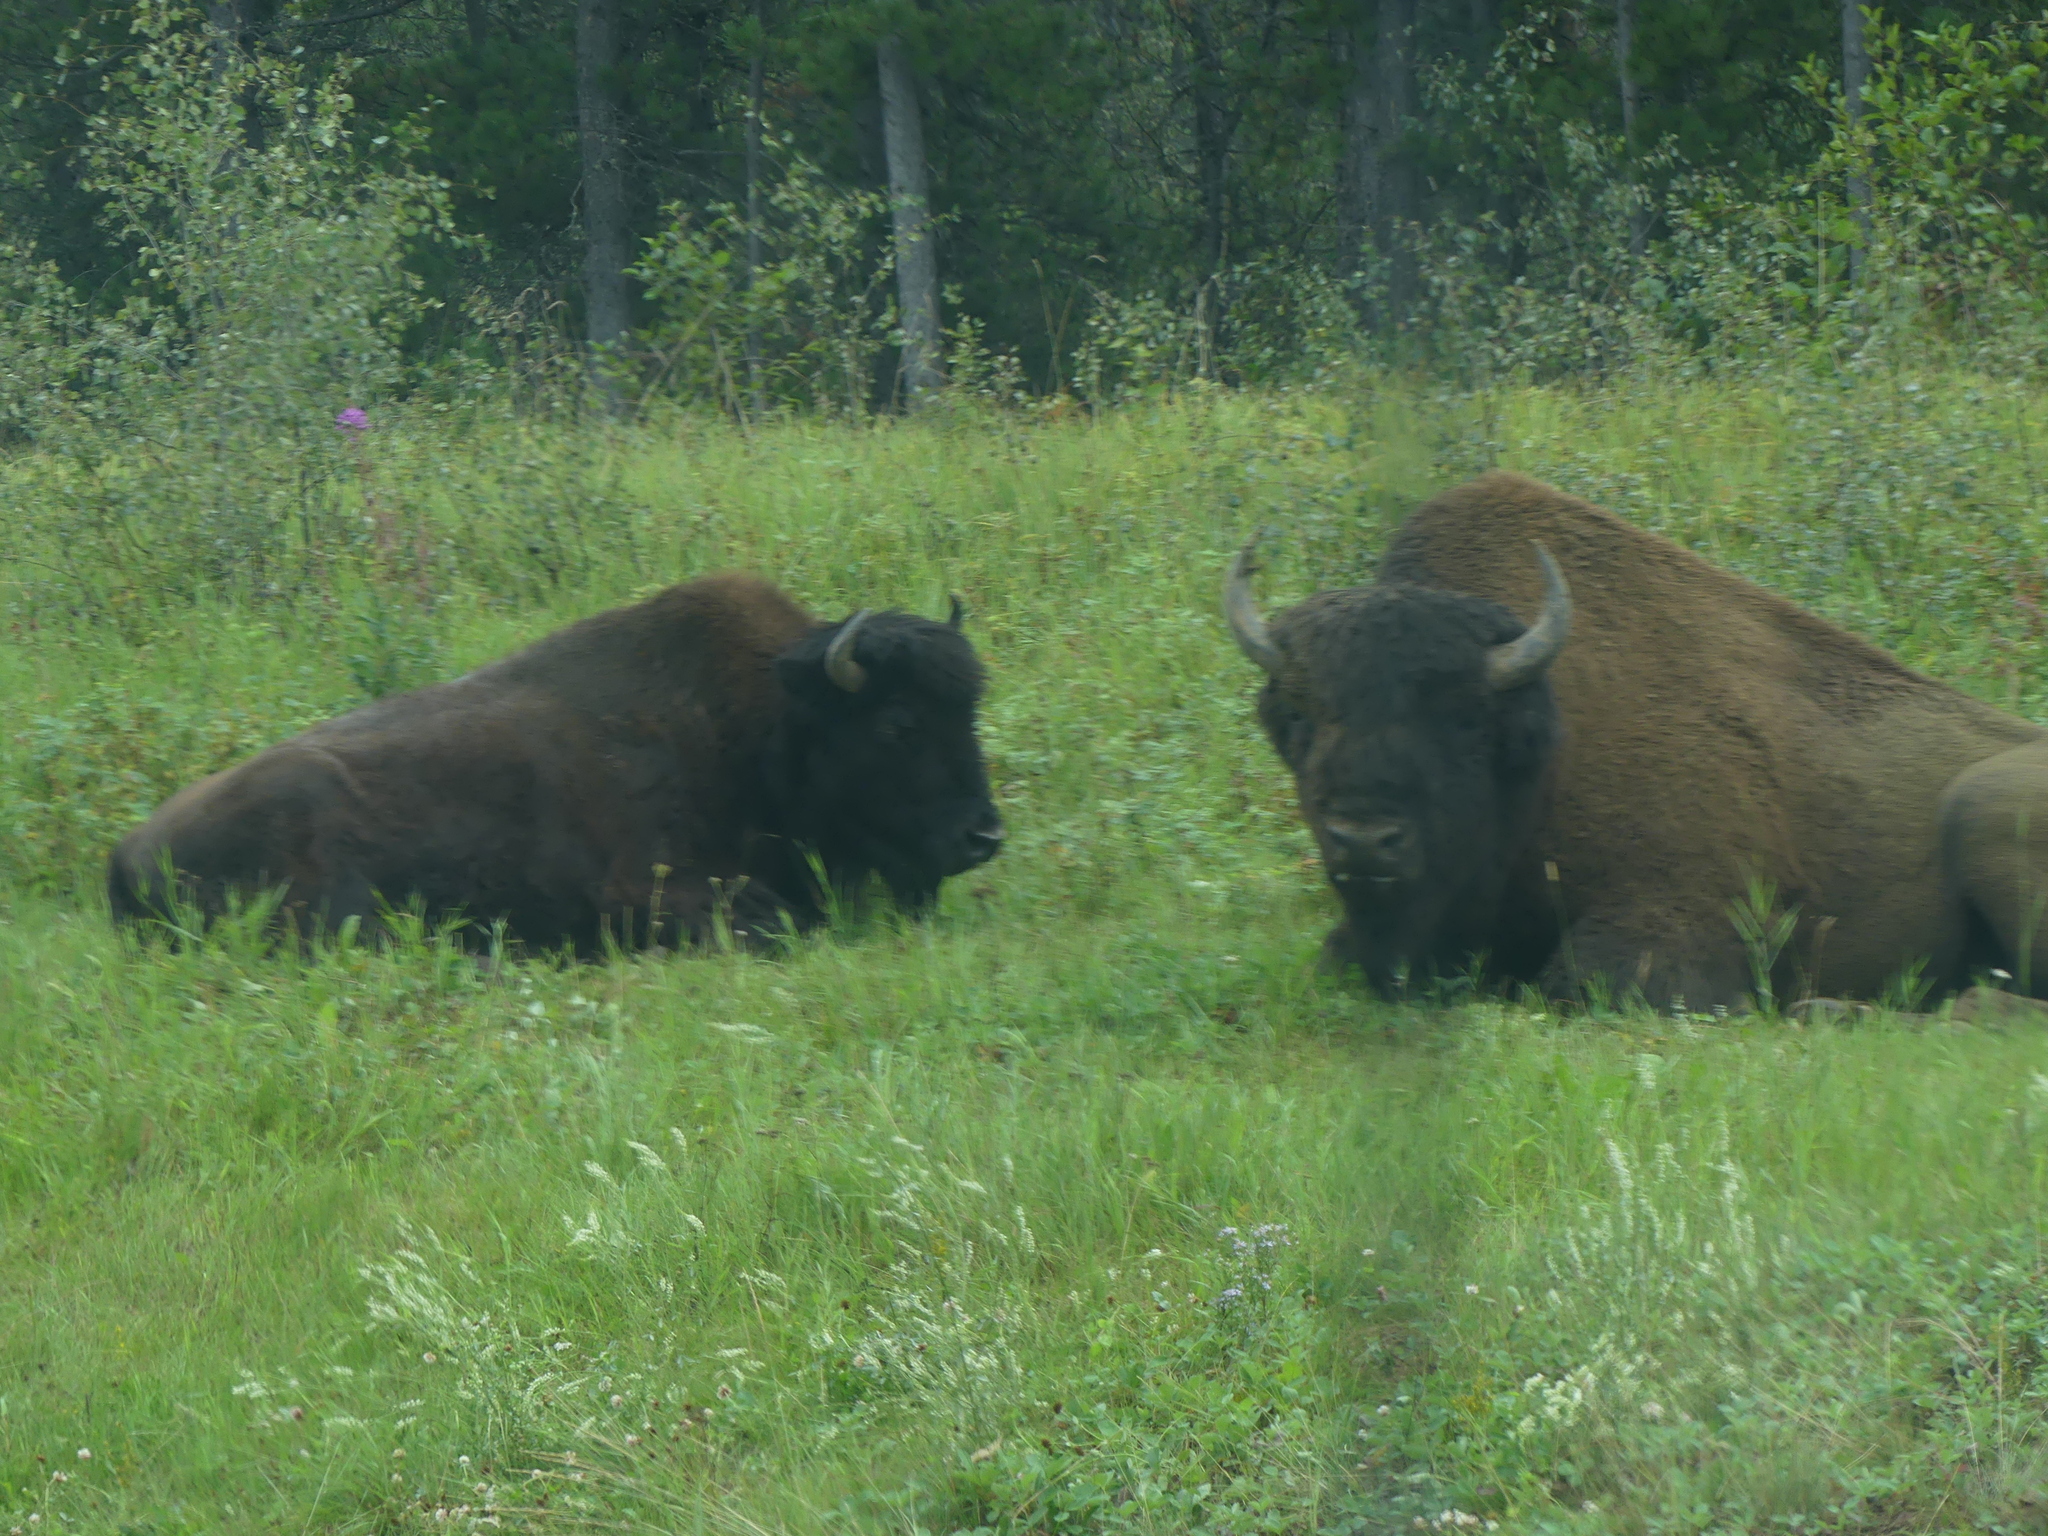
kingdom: Animalia
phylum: Chordata
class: Mammalia
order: Artiodactyla
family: Bovidae
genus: Bison
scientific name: Bison bison
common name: American bison
